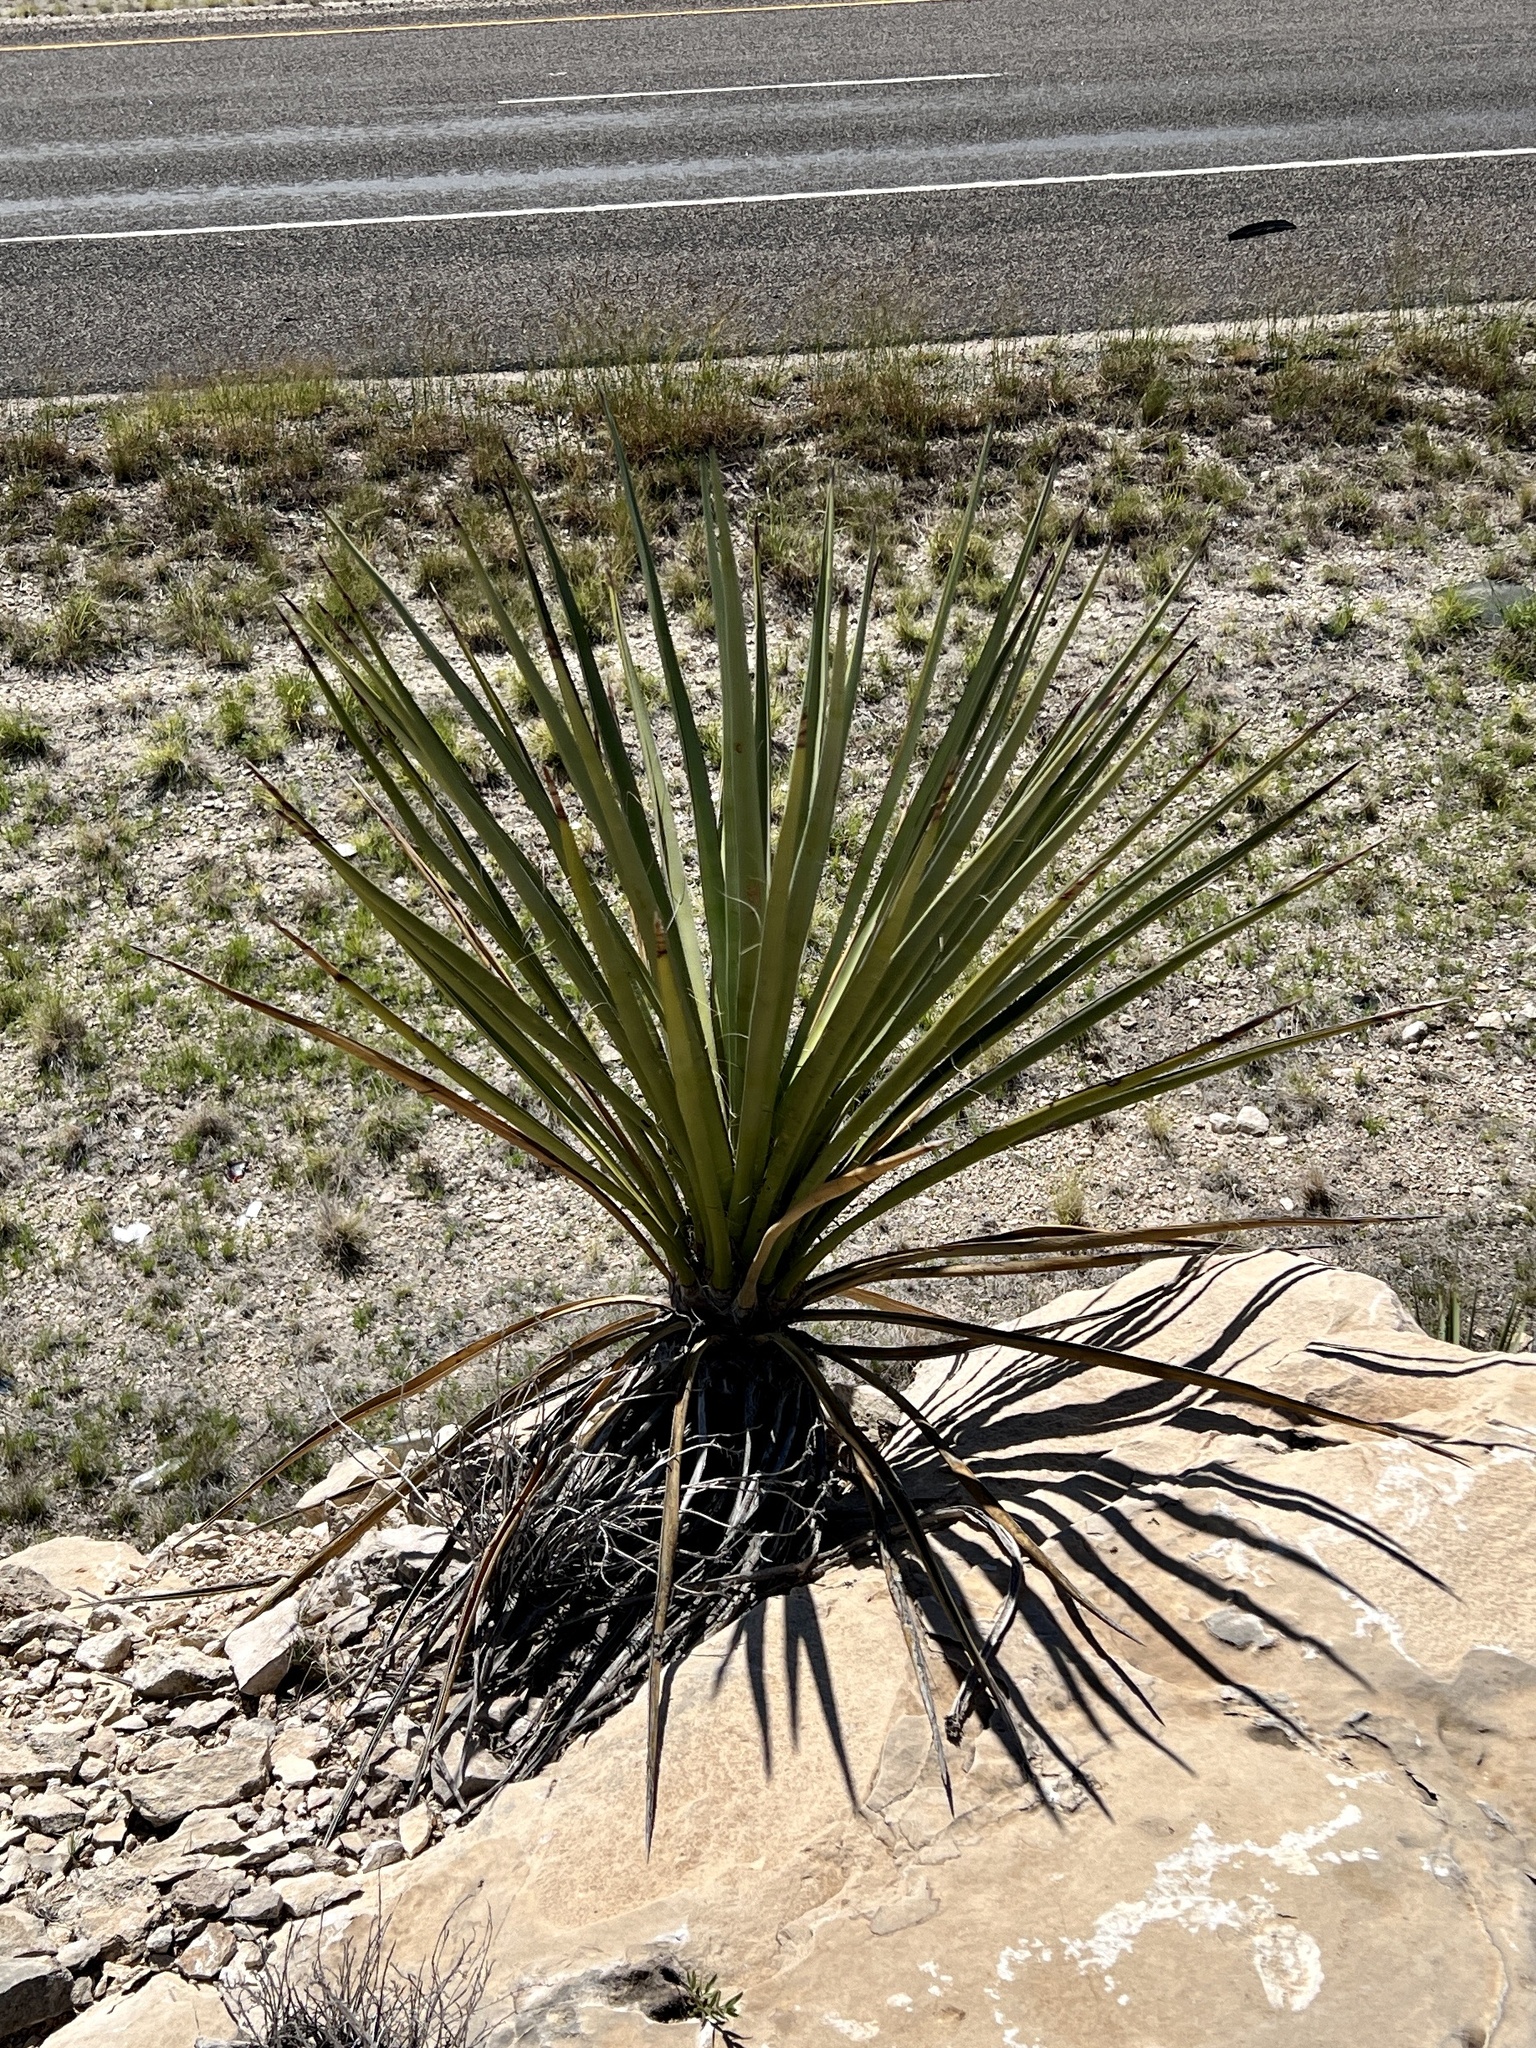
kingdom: Plantae
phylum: Tracheophyta
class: Liliopsida
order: Asparagales
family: Asparagaceae
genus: Yucca
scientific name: Yucca treculiana
